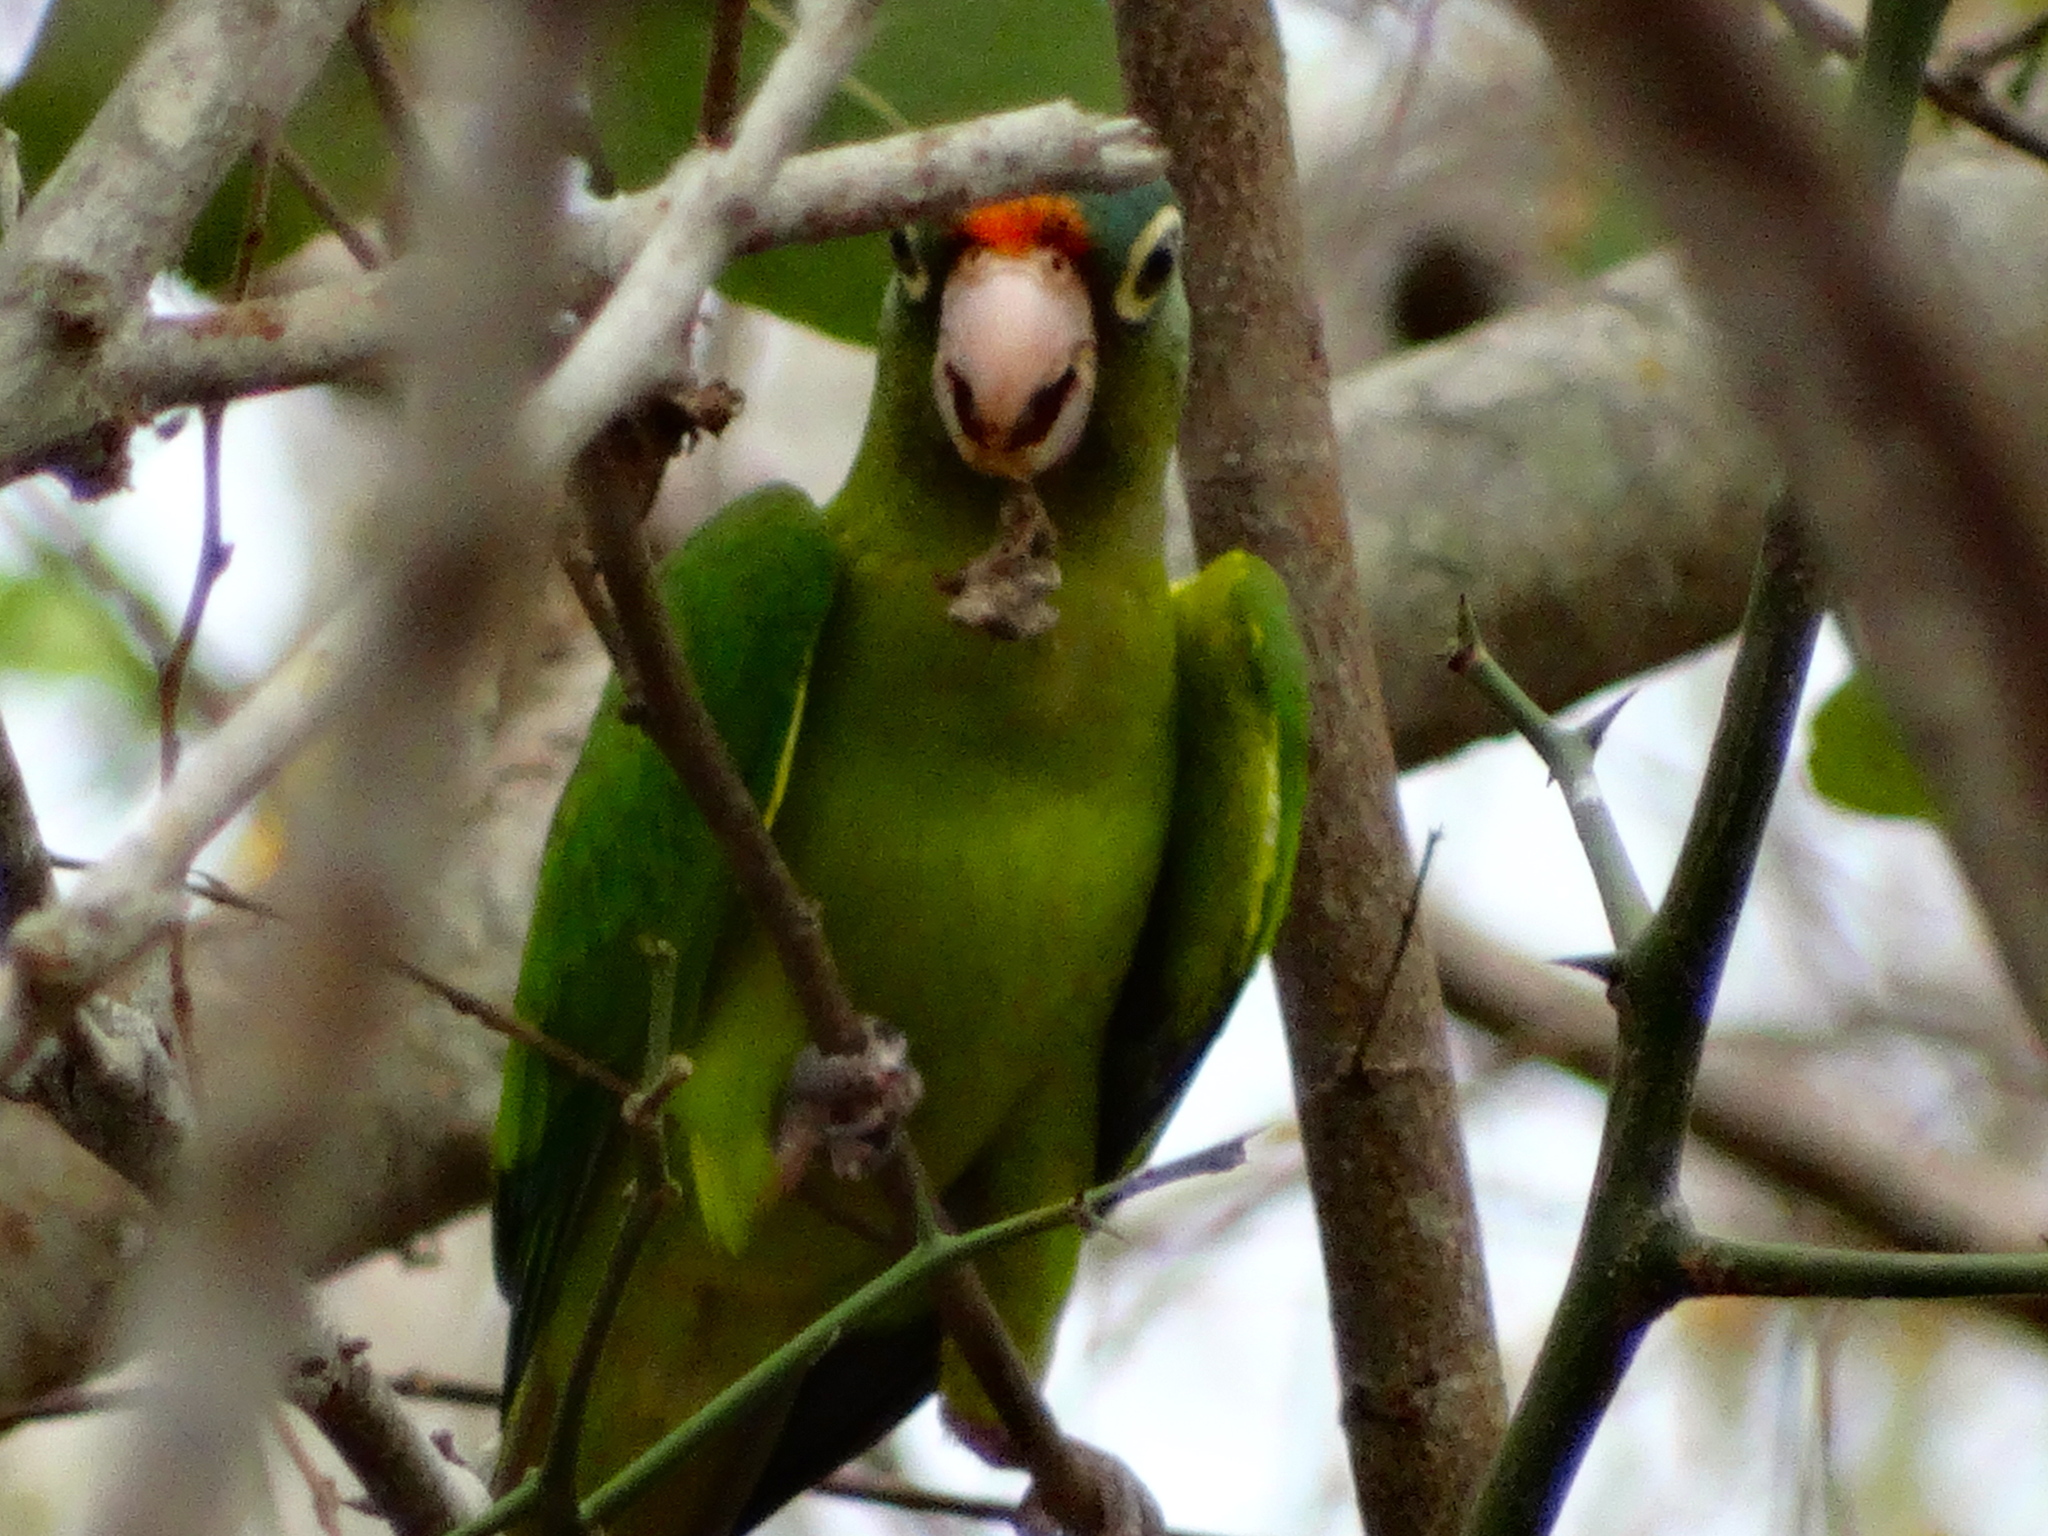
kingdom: Animalia
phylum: Chordata
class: Aves
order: Psittaciformes
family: Psittacidae
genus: Aratinga
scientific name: Aratinga canicularis
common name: Orange-fronted parakeet
